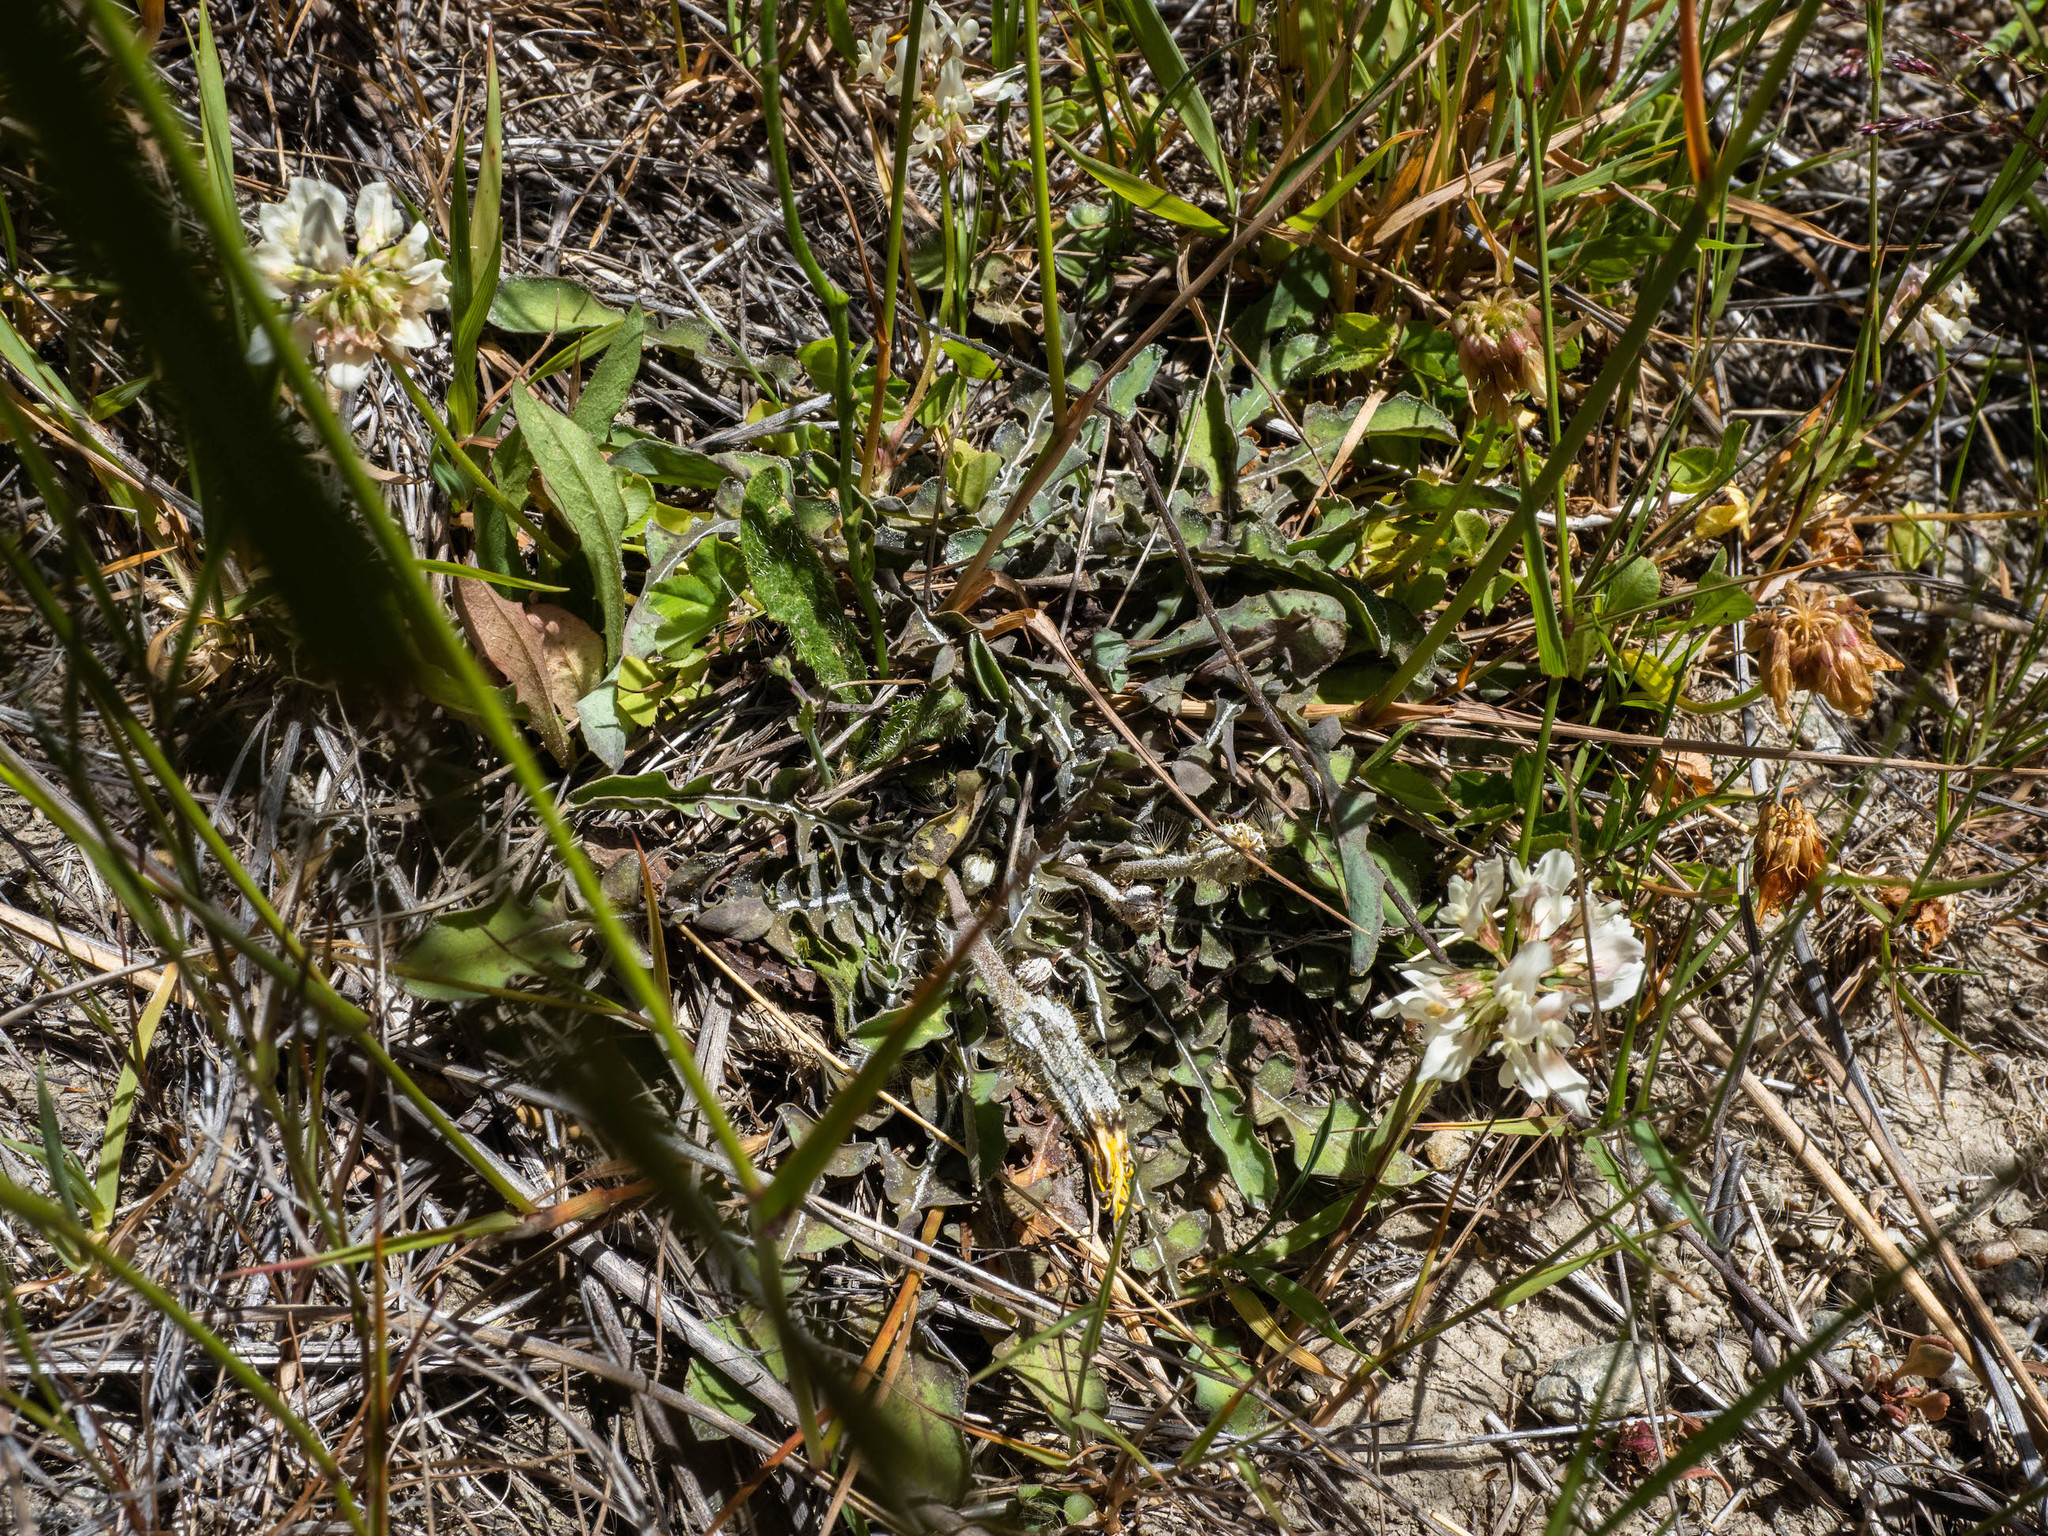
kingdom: Plantae
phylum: Tracheophyta
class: Magnoliopsida
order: Asterales
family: Asteraceae
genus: Sonchus
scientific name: Sonchus novae-zelandiae
